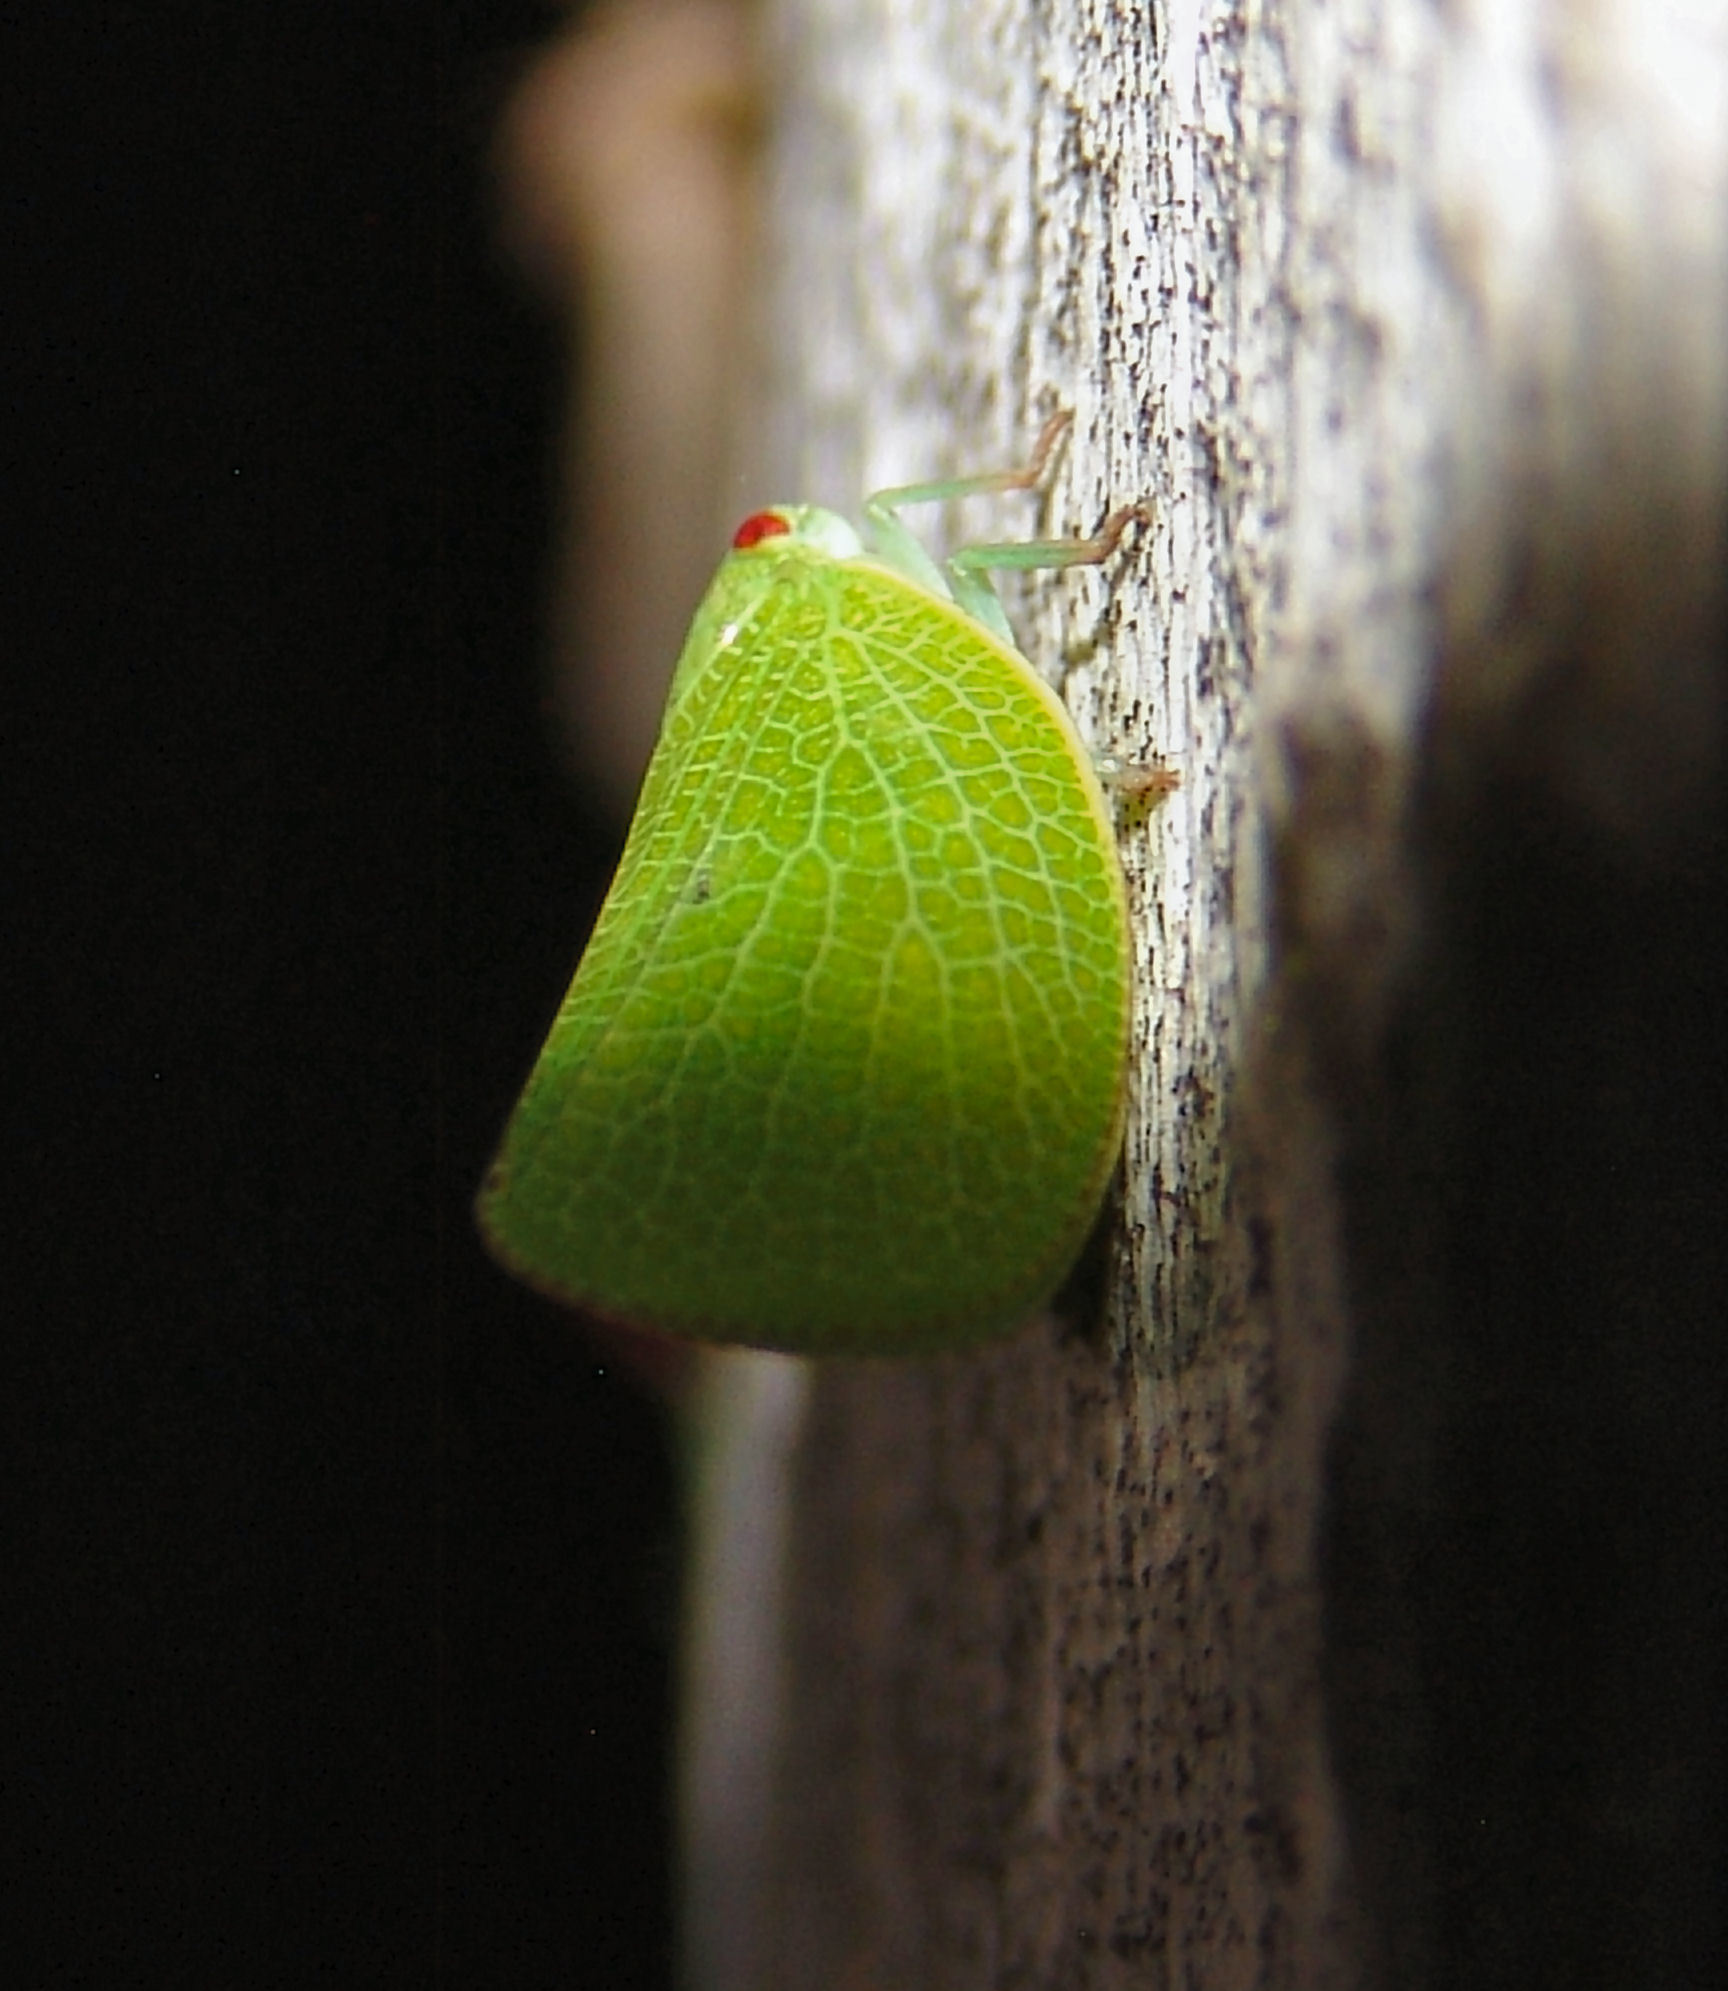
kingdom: Animalia
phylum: Arthropoda
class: Insecta
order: Hemiptera
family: Acanaloniidae
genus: Acanalonia
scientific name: Acanalonia conica
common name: Green cone-headed planthopper
